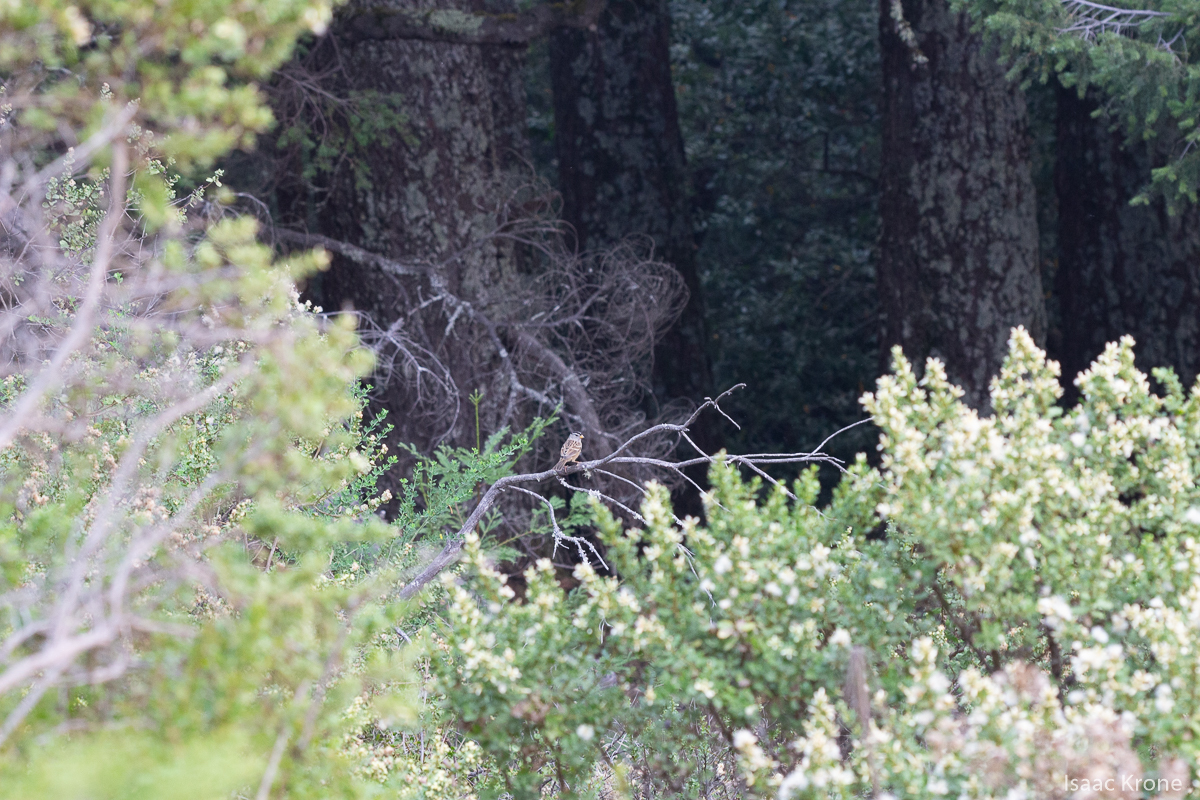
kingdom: Animalia
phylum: Chordata
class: Aves
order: Passeriformes
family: Passerellidae
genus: Zonotrichia
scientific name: Zonotrichia leucophrys
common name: White-crowned sparrow
